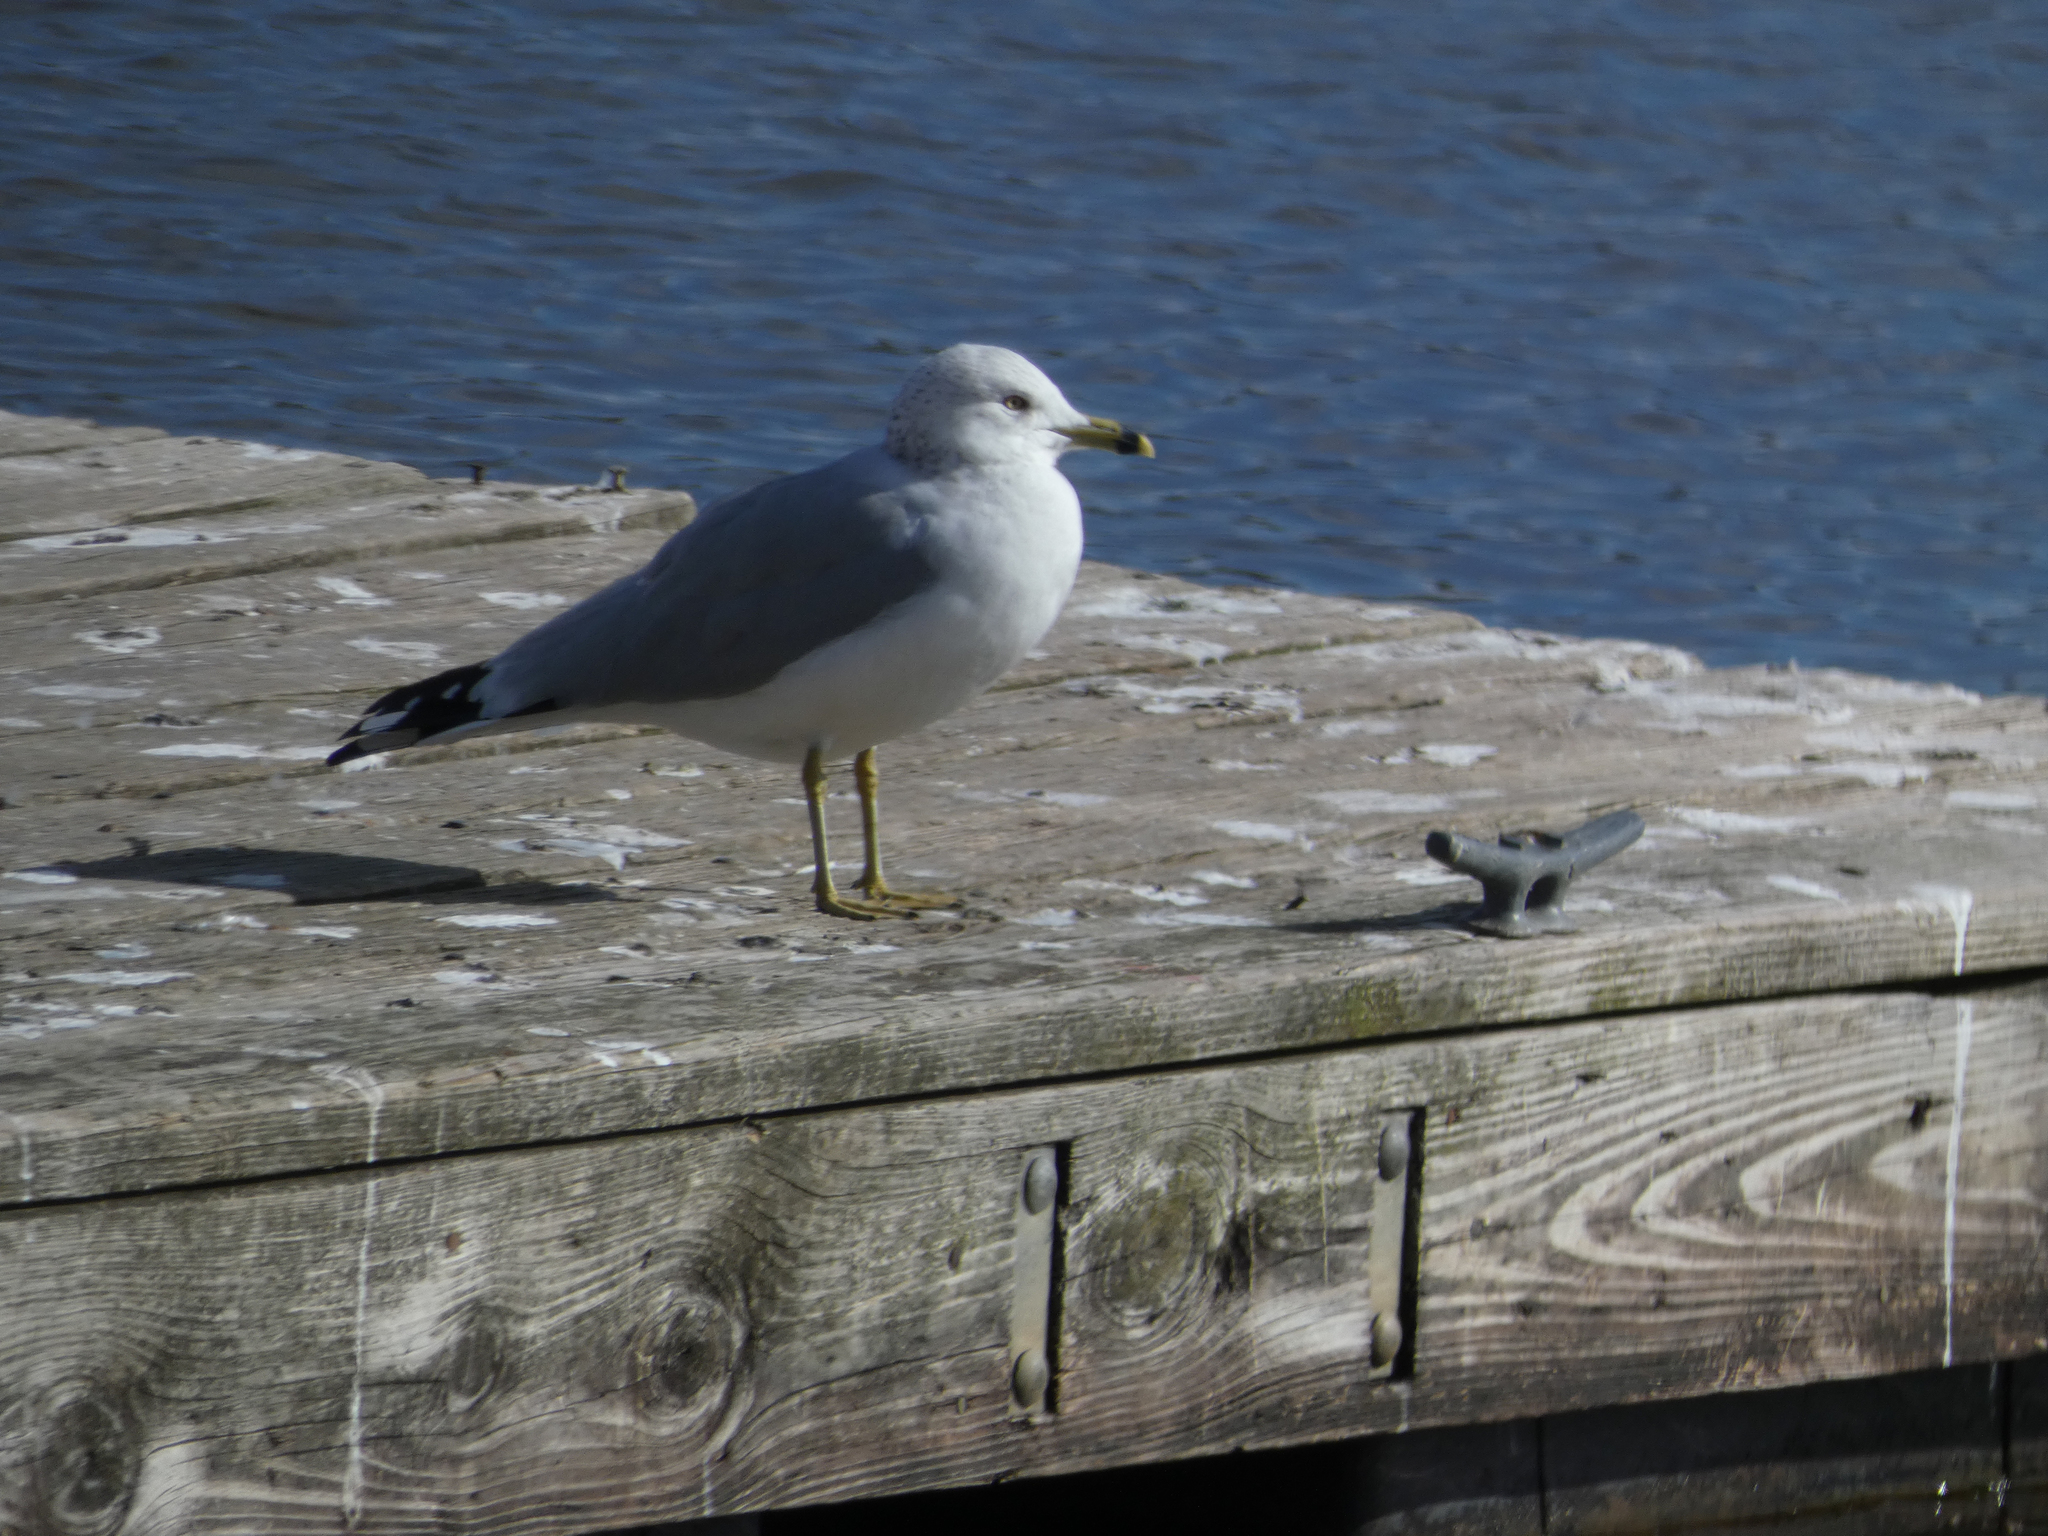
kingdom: Animalia
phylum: Chordata
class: Aves
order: Charadriiformes
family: Laridae
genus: Larus
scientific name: Larus delawarensis
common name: Ring-billed gull
